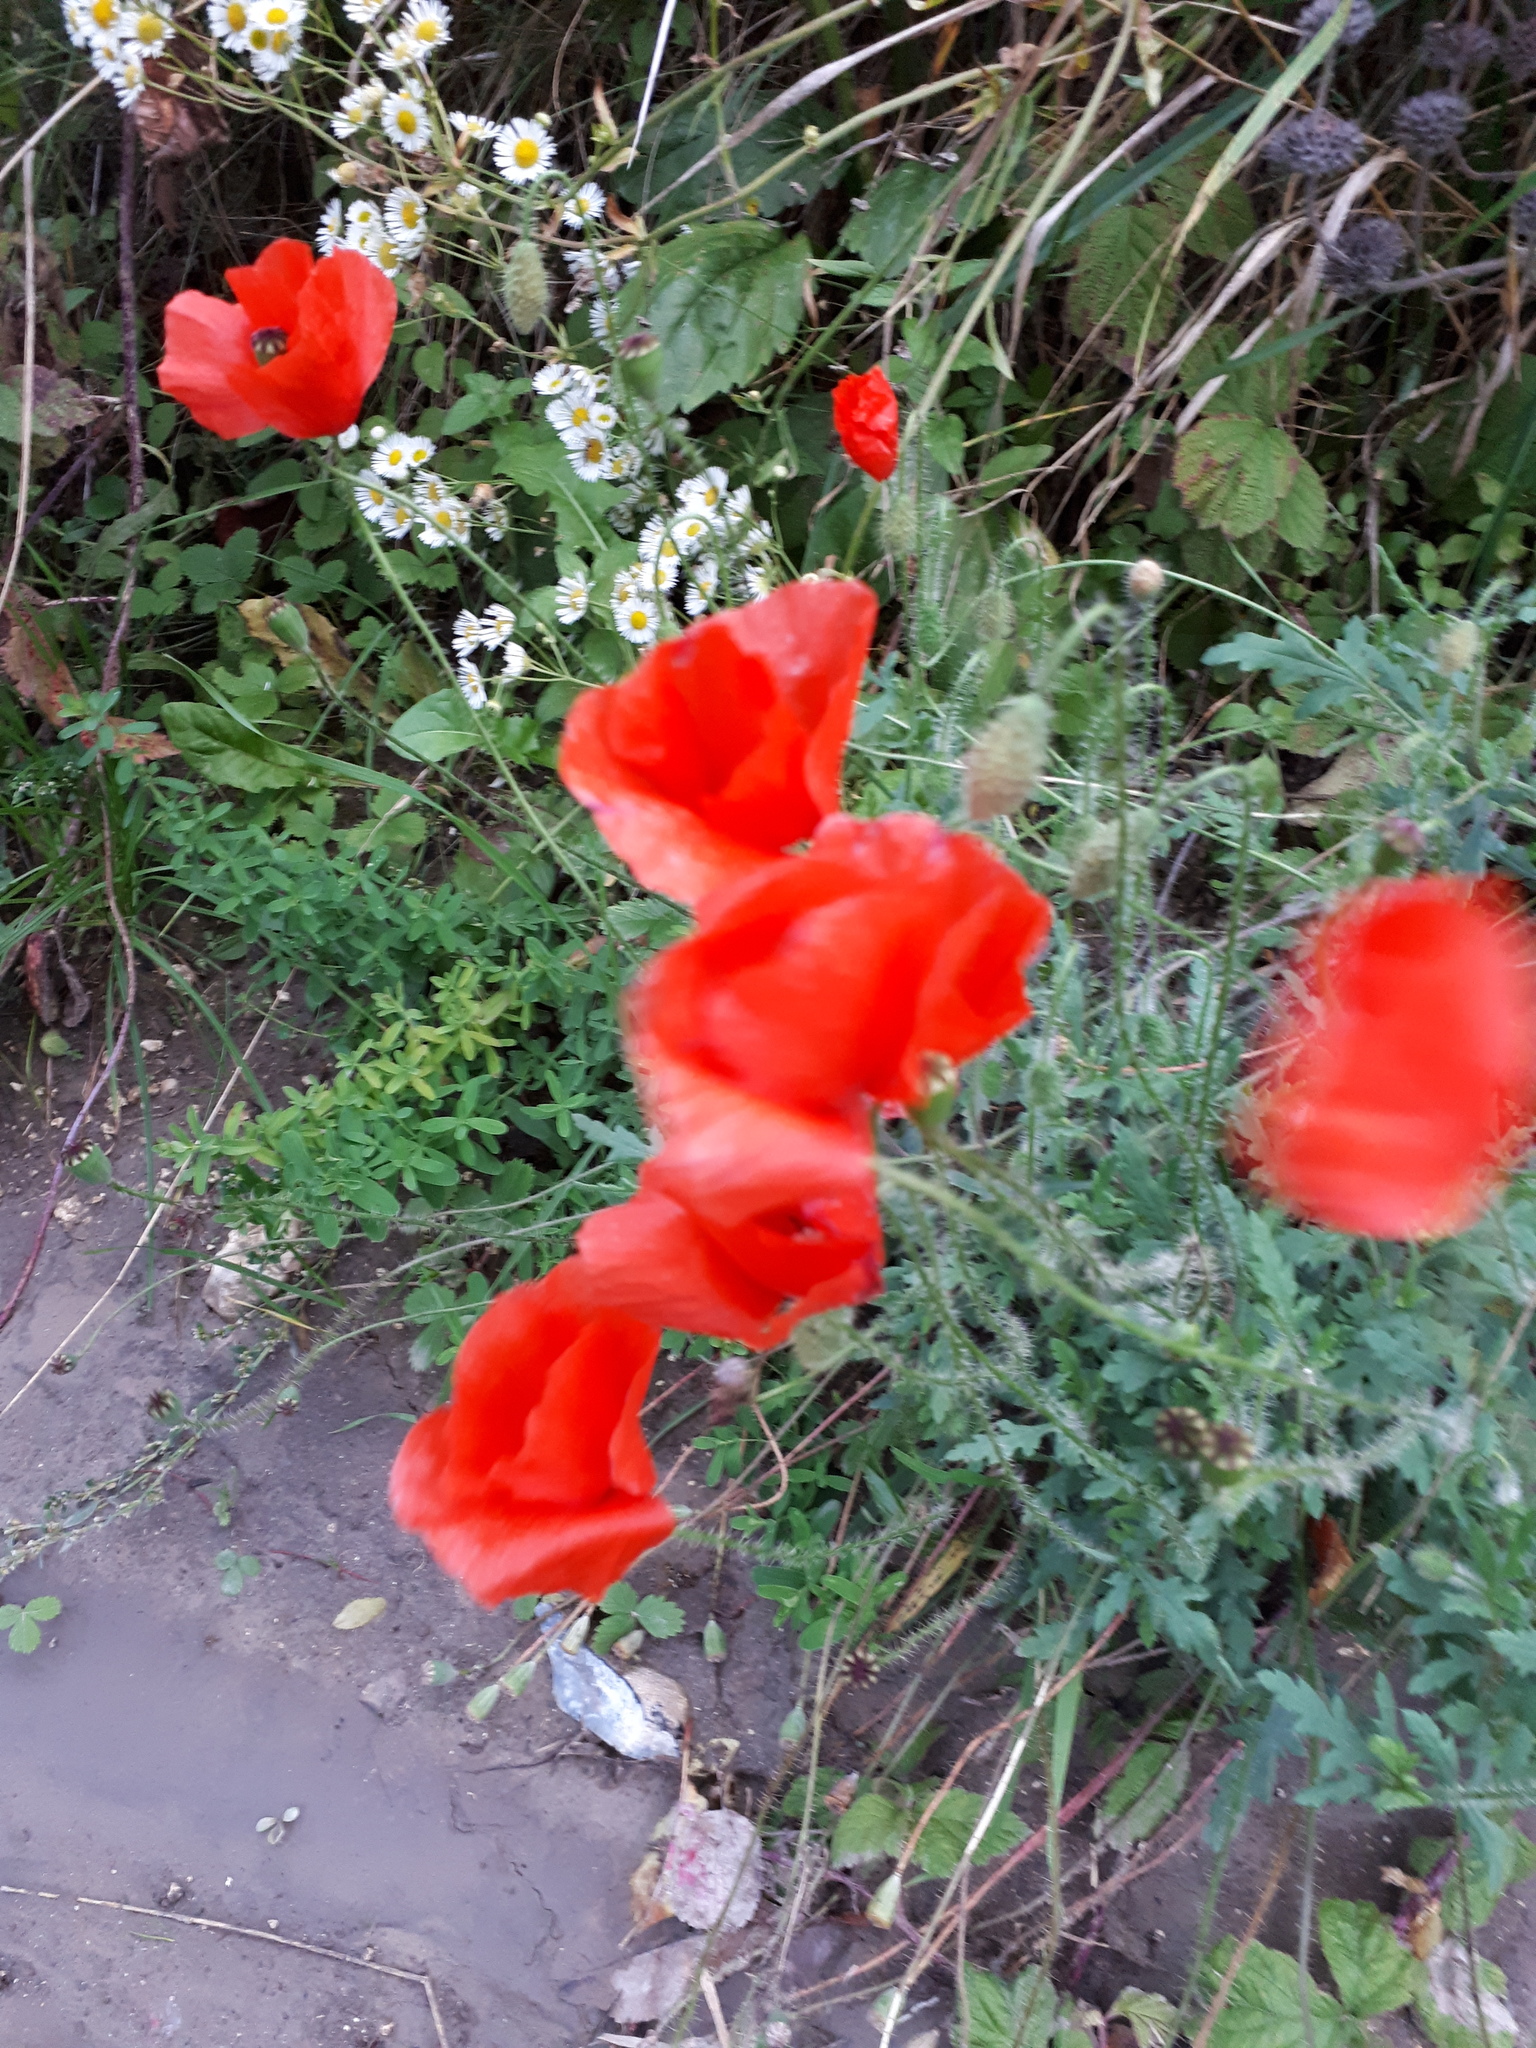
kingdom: Plantae
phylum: Tracheophyta
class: Magnoliopsida
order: Ranunculales
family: Papaveraceae
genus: Papaver
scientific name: Papaver rhoeas
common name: Corn poppy
